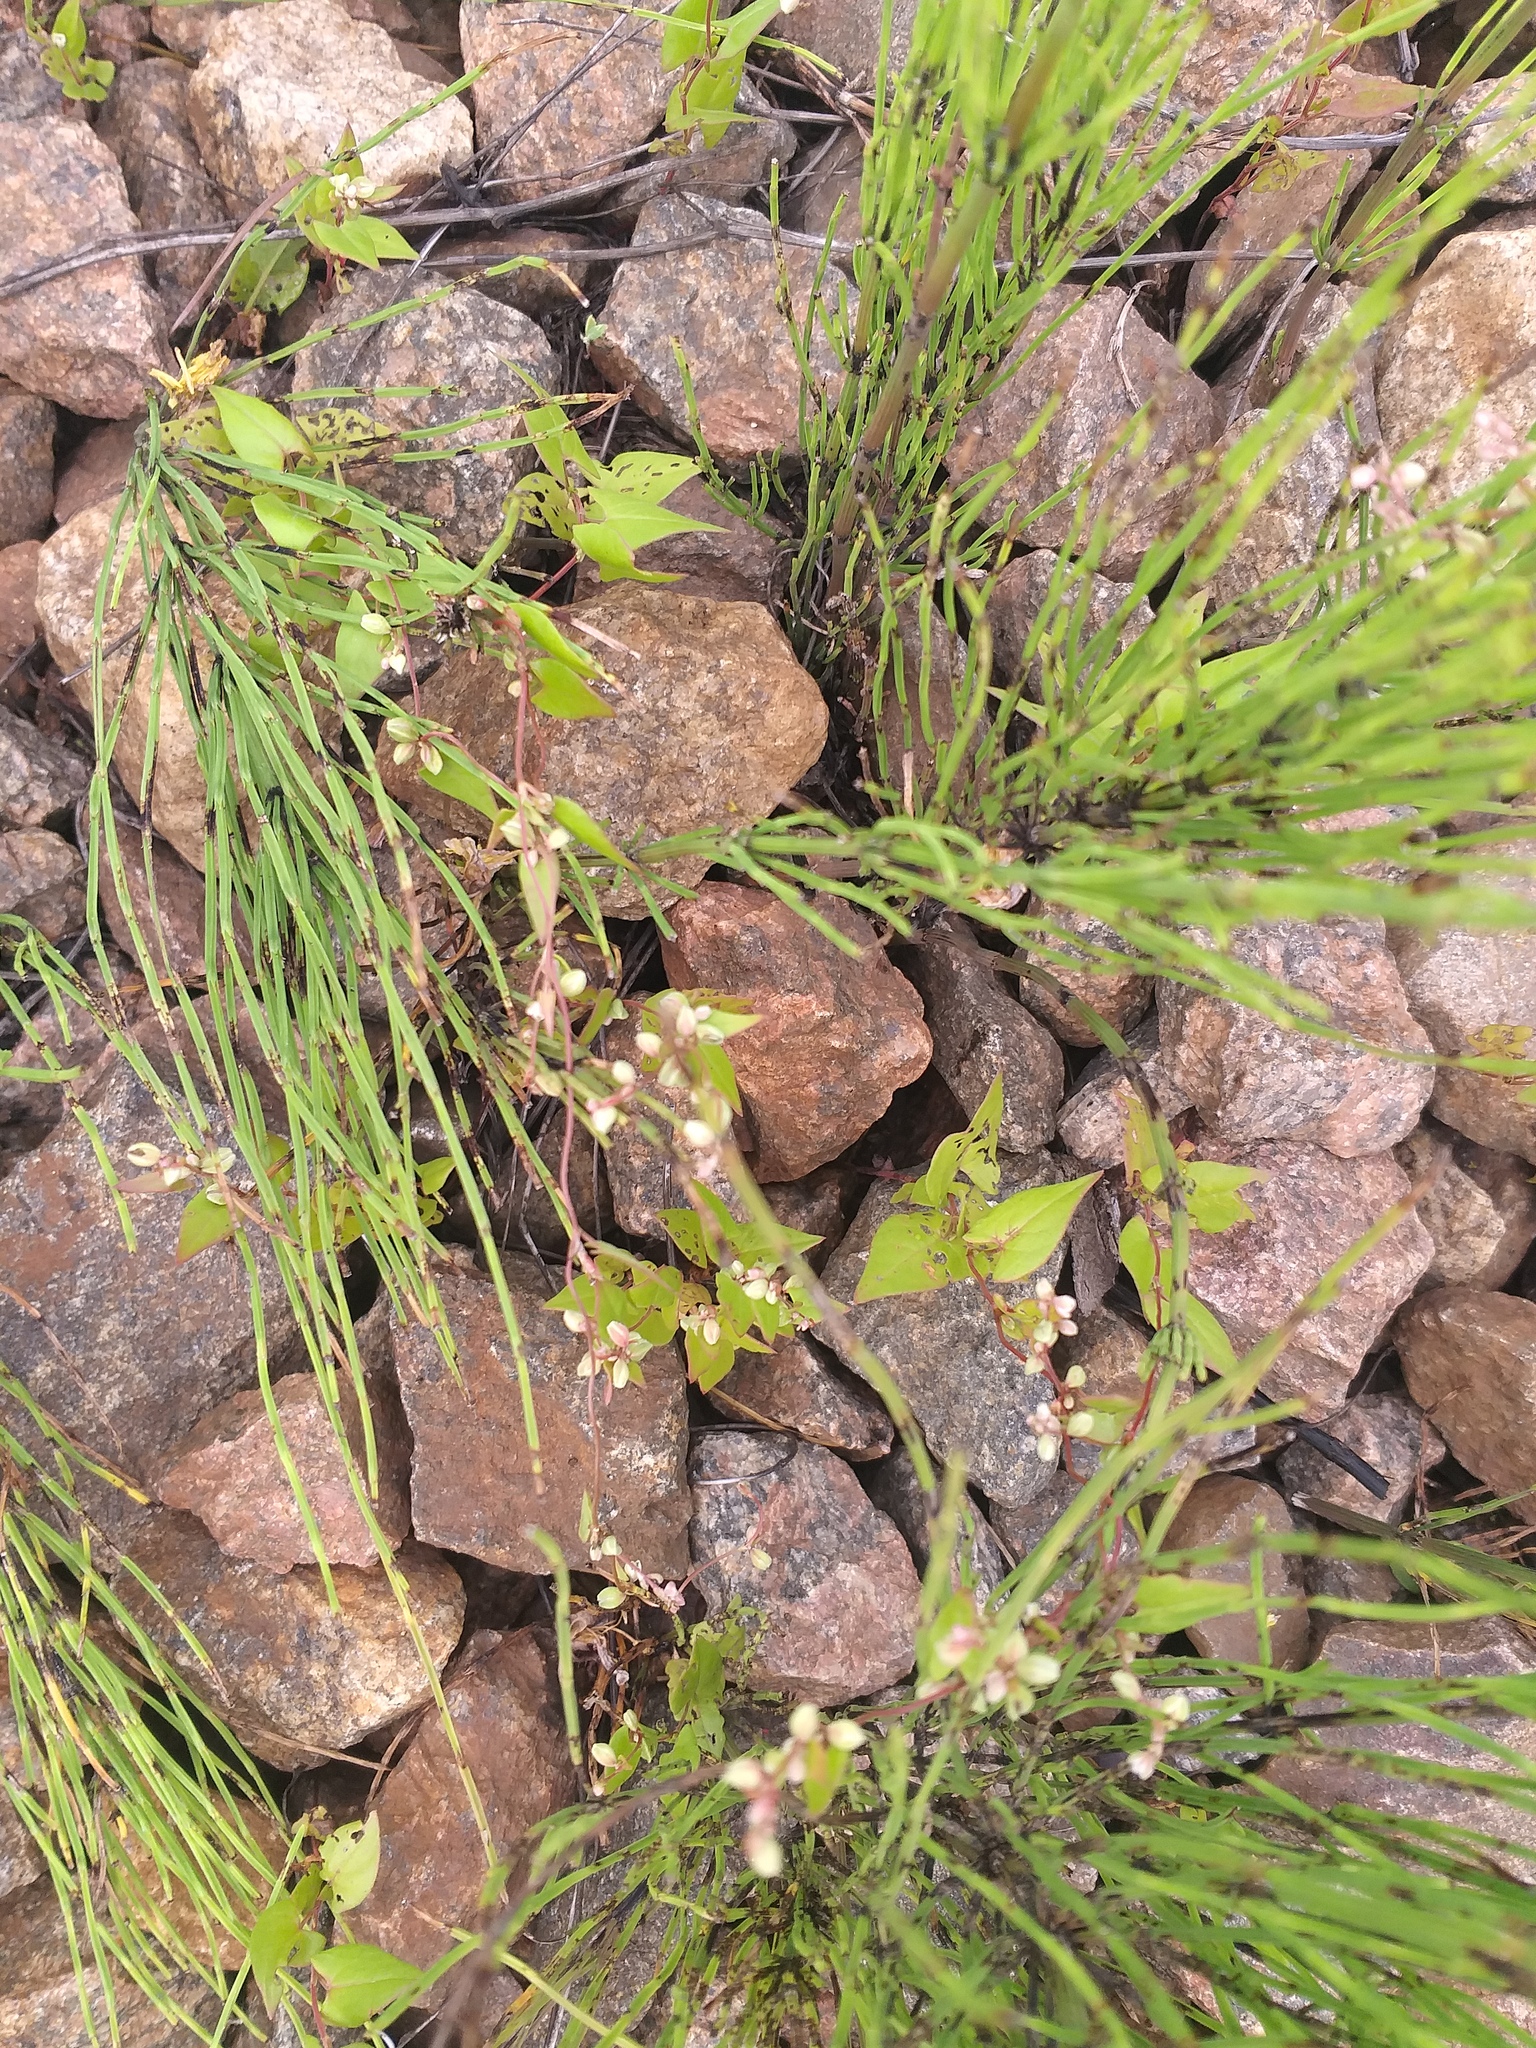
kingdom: Plantae
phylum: Tracheophyta
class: Magnoliopsida
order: Caryophyllales
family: Polygonaceae
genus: Fallopia
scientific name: Fallopia convolvulus
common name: Black bindweed
